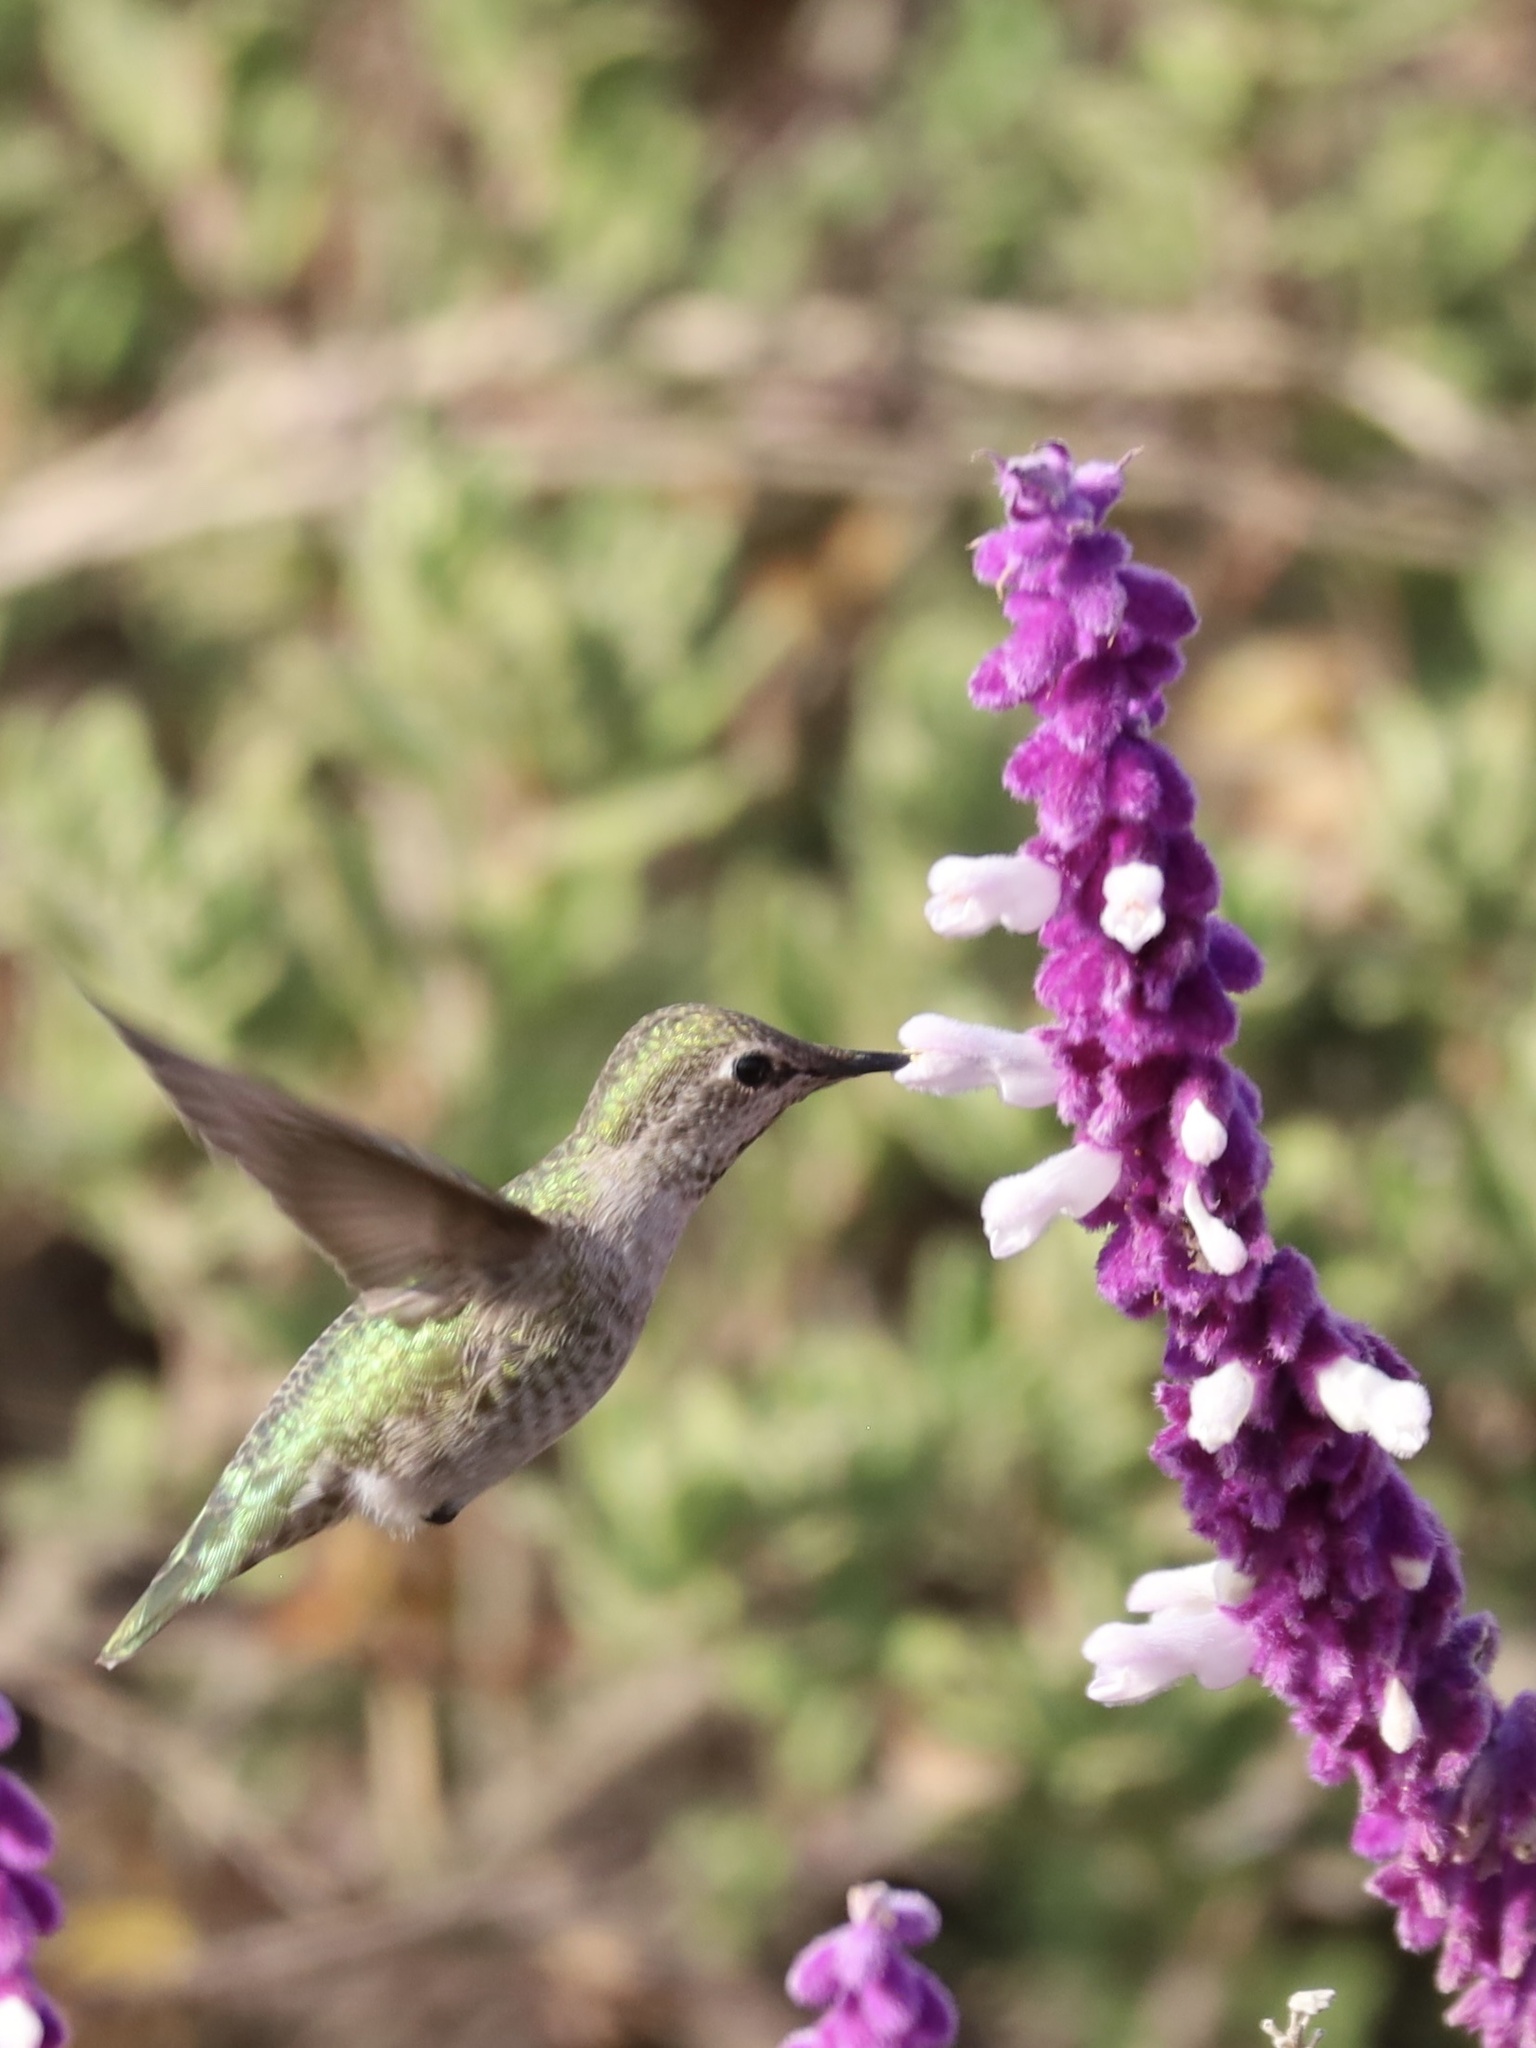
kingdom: Animalia
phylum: Chordata
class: Aves
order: Apodiformes
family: Trochilidae
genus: Calypte
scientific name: Calypte anna
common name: Anna's hummingbird
